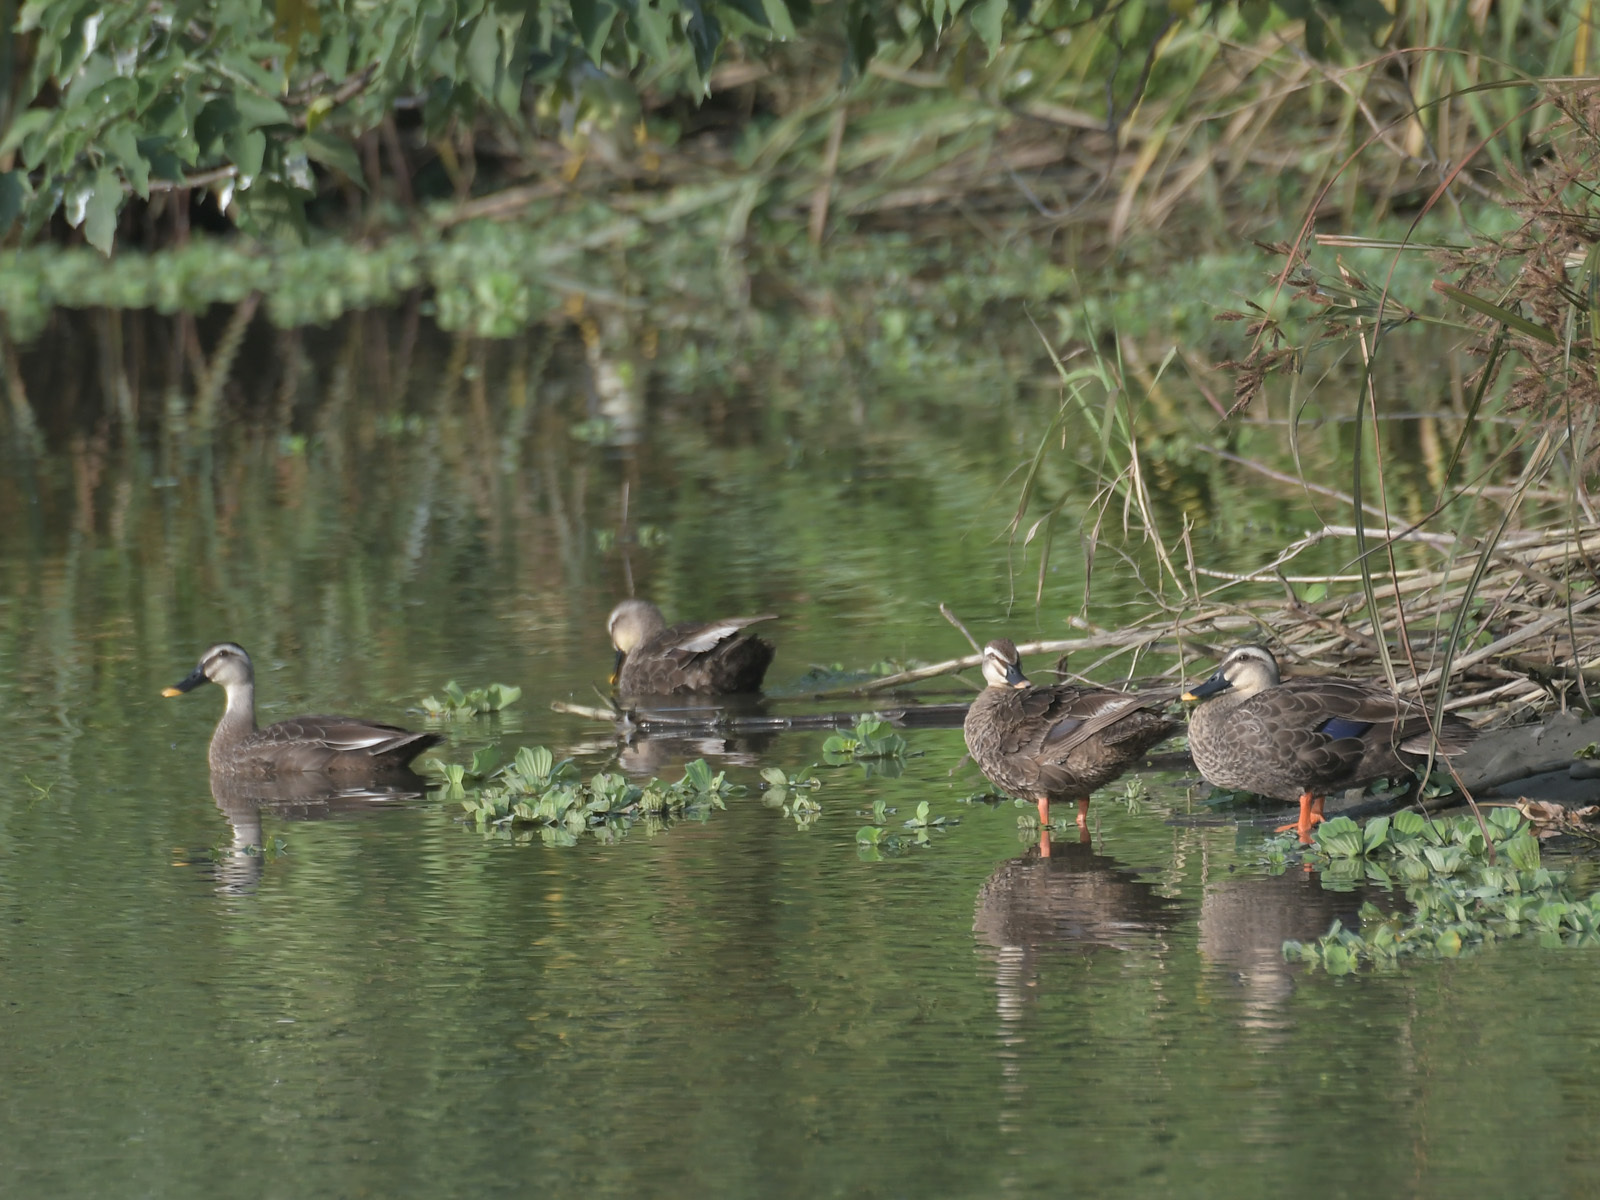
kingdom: Animalia
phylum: Chordata
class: Aves
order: Anseriformes
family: Anatidae
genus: Anas
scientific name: Anas zonorhyncha
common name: Eastern spot-billed duck
